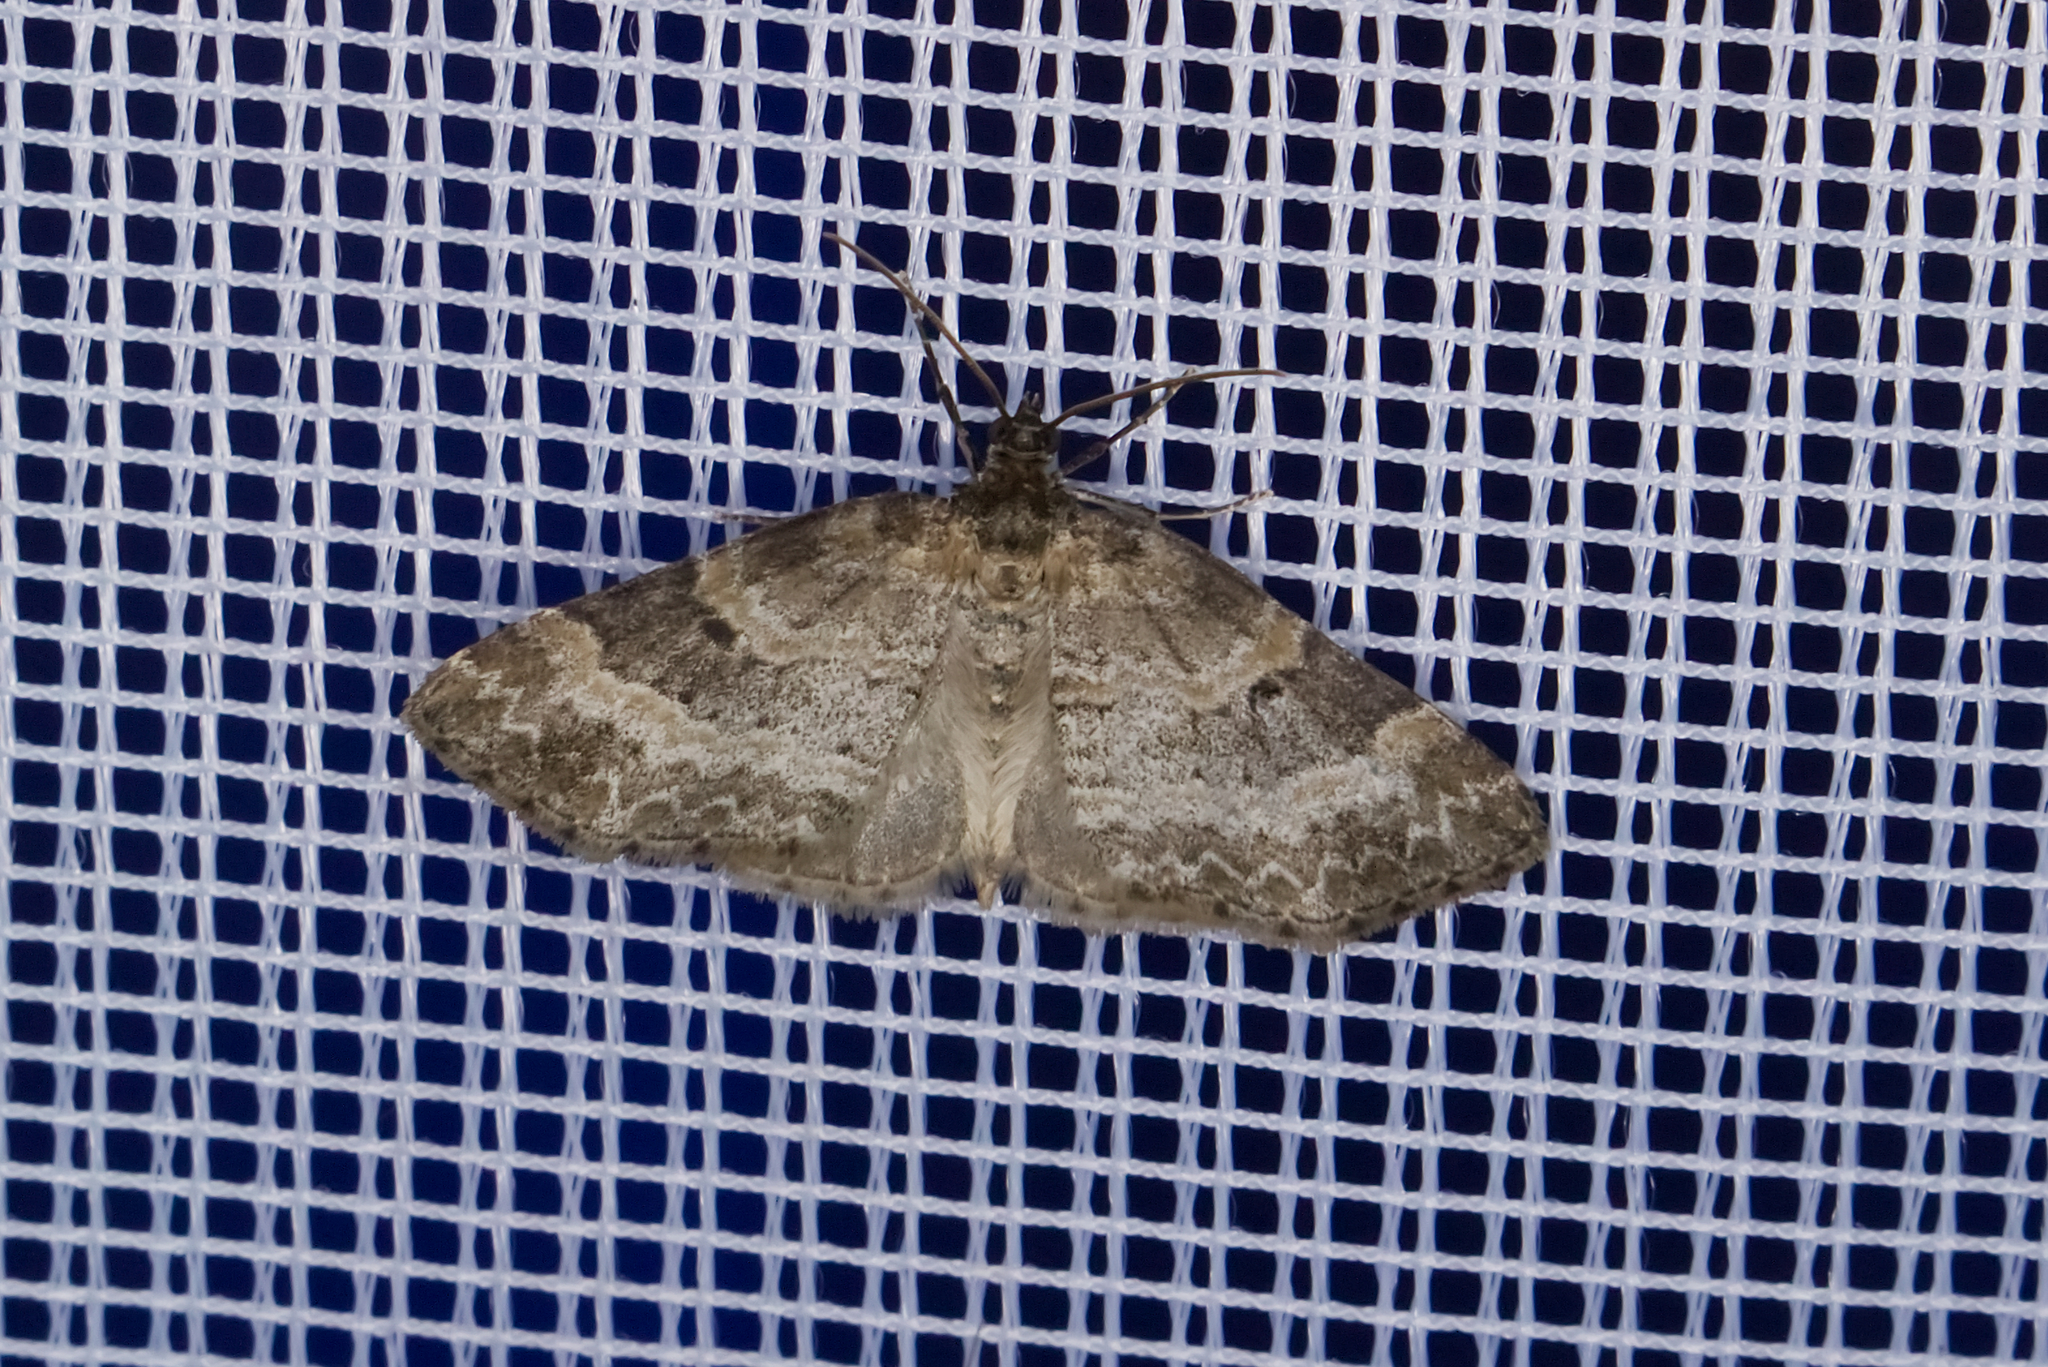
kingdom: Animalia
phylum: Arthropoda
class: Insecta
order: Lepidoptera
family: Geometridae
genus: Pterapherapteryx
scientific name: Pterapherapteryx sexalata
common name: Small seraphim
